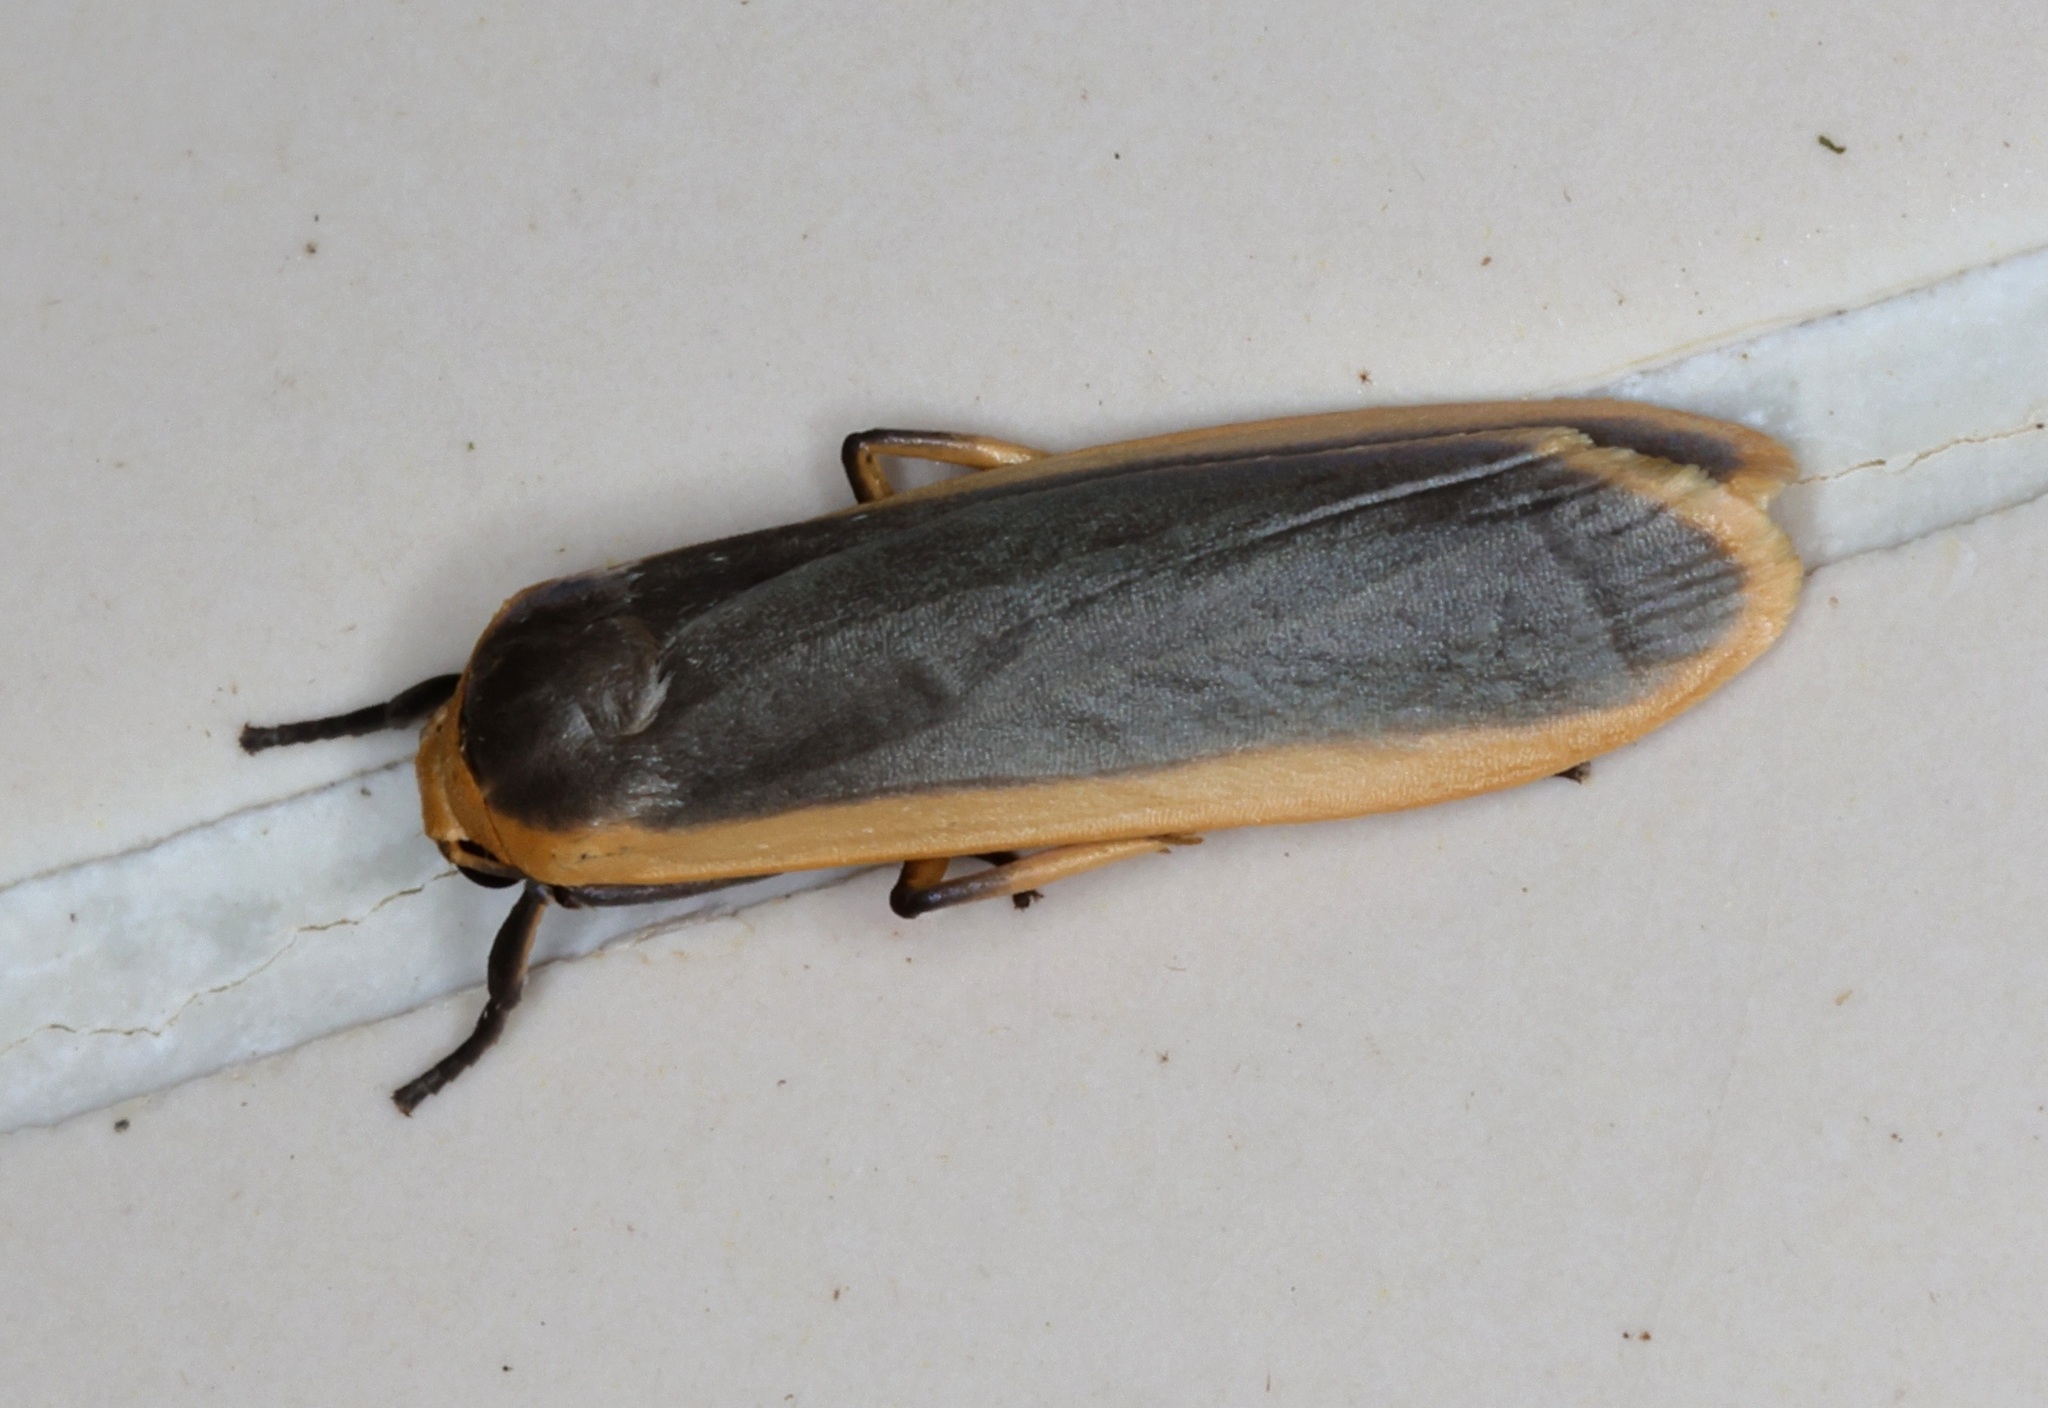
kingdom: Animalia
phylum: Arthropoda
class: Insecta
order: Lepidoptera
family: Erebidae
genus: Brunia
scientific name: Brunia antica
